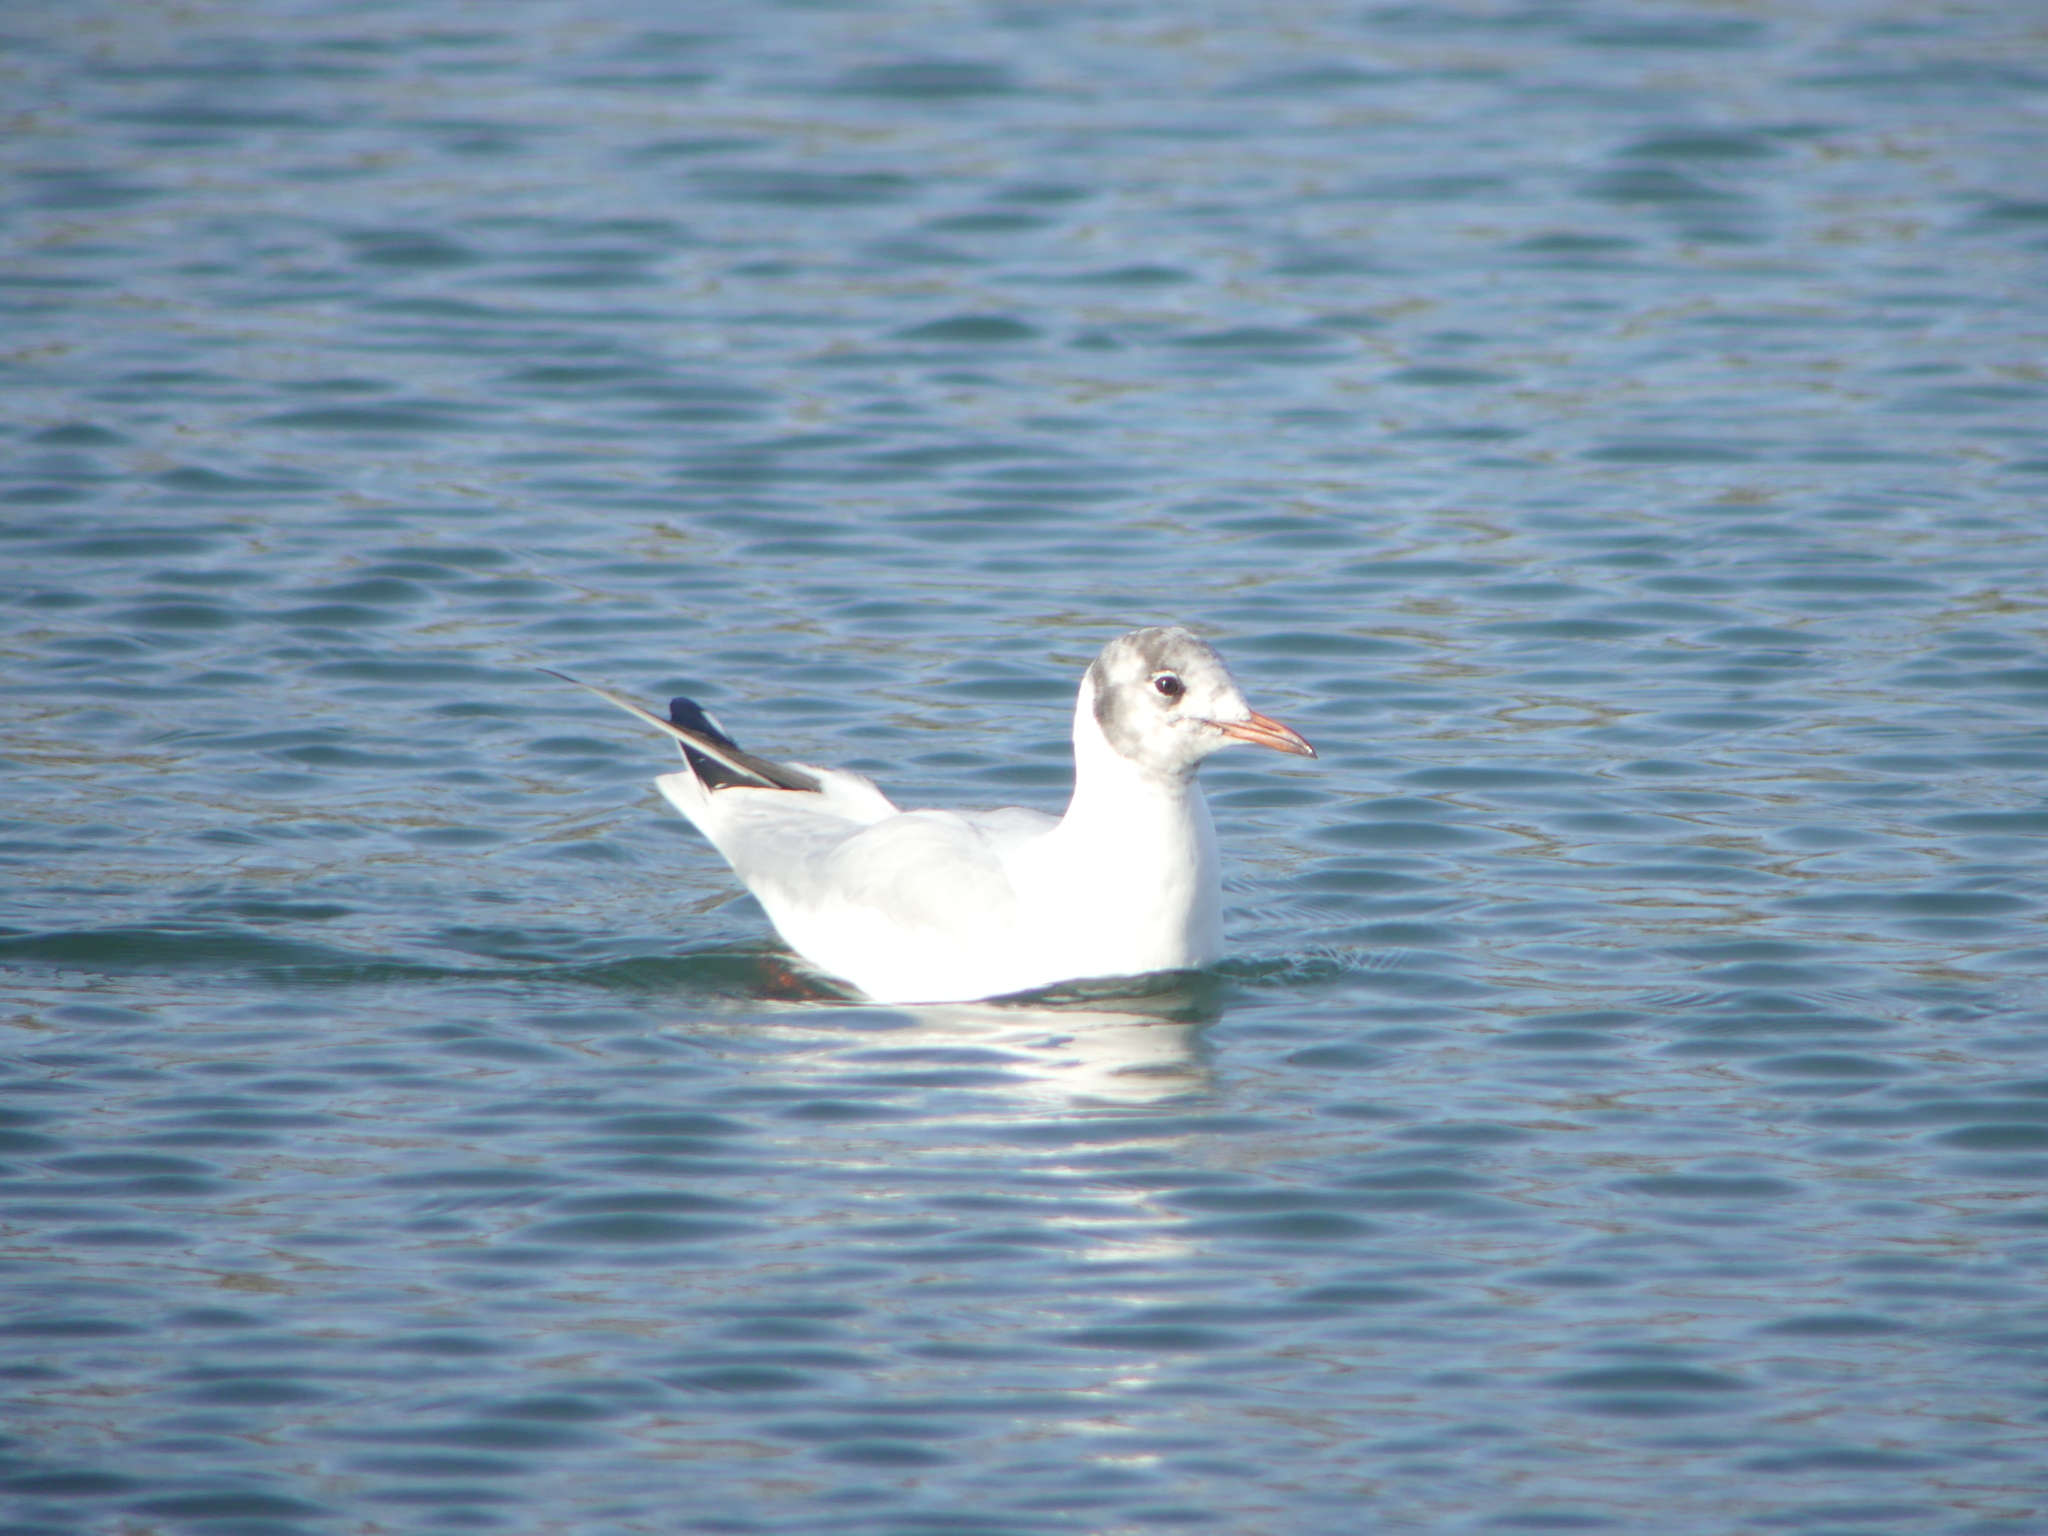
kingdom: Animalia
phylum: Chordata
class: Aves
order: Charadriiformes
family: Laridae
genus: Chroicocephalus
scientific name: Chroicocephalus ridibundus
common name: Black-headed gull
